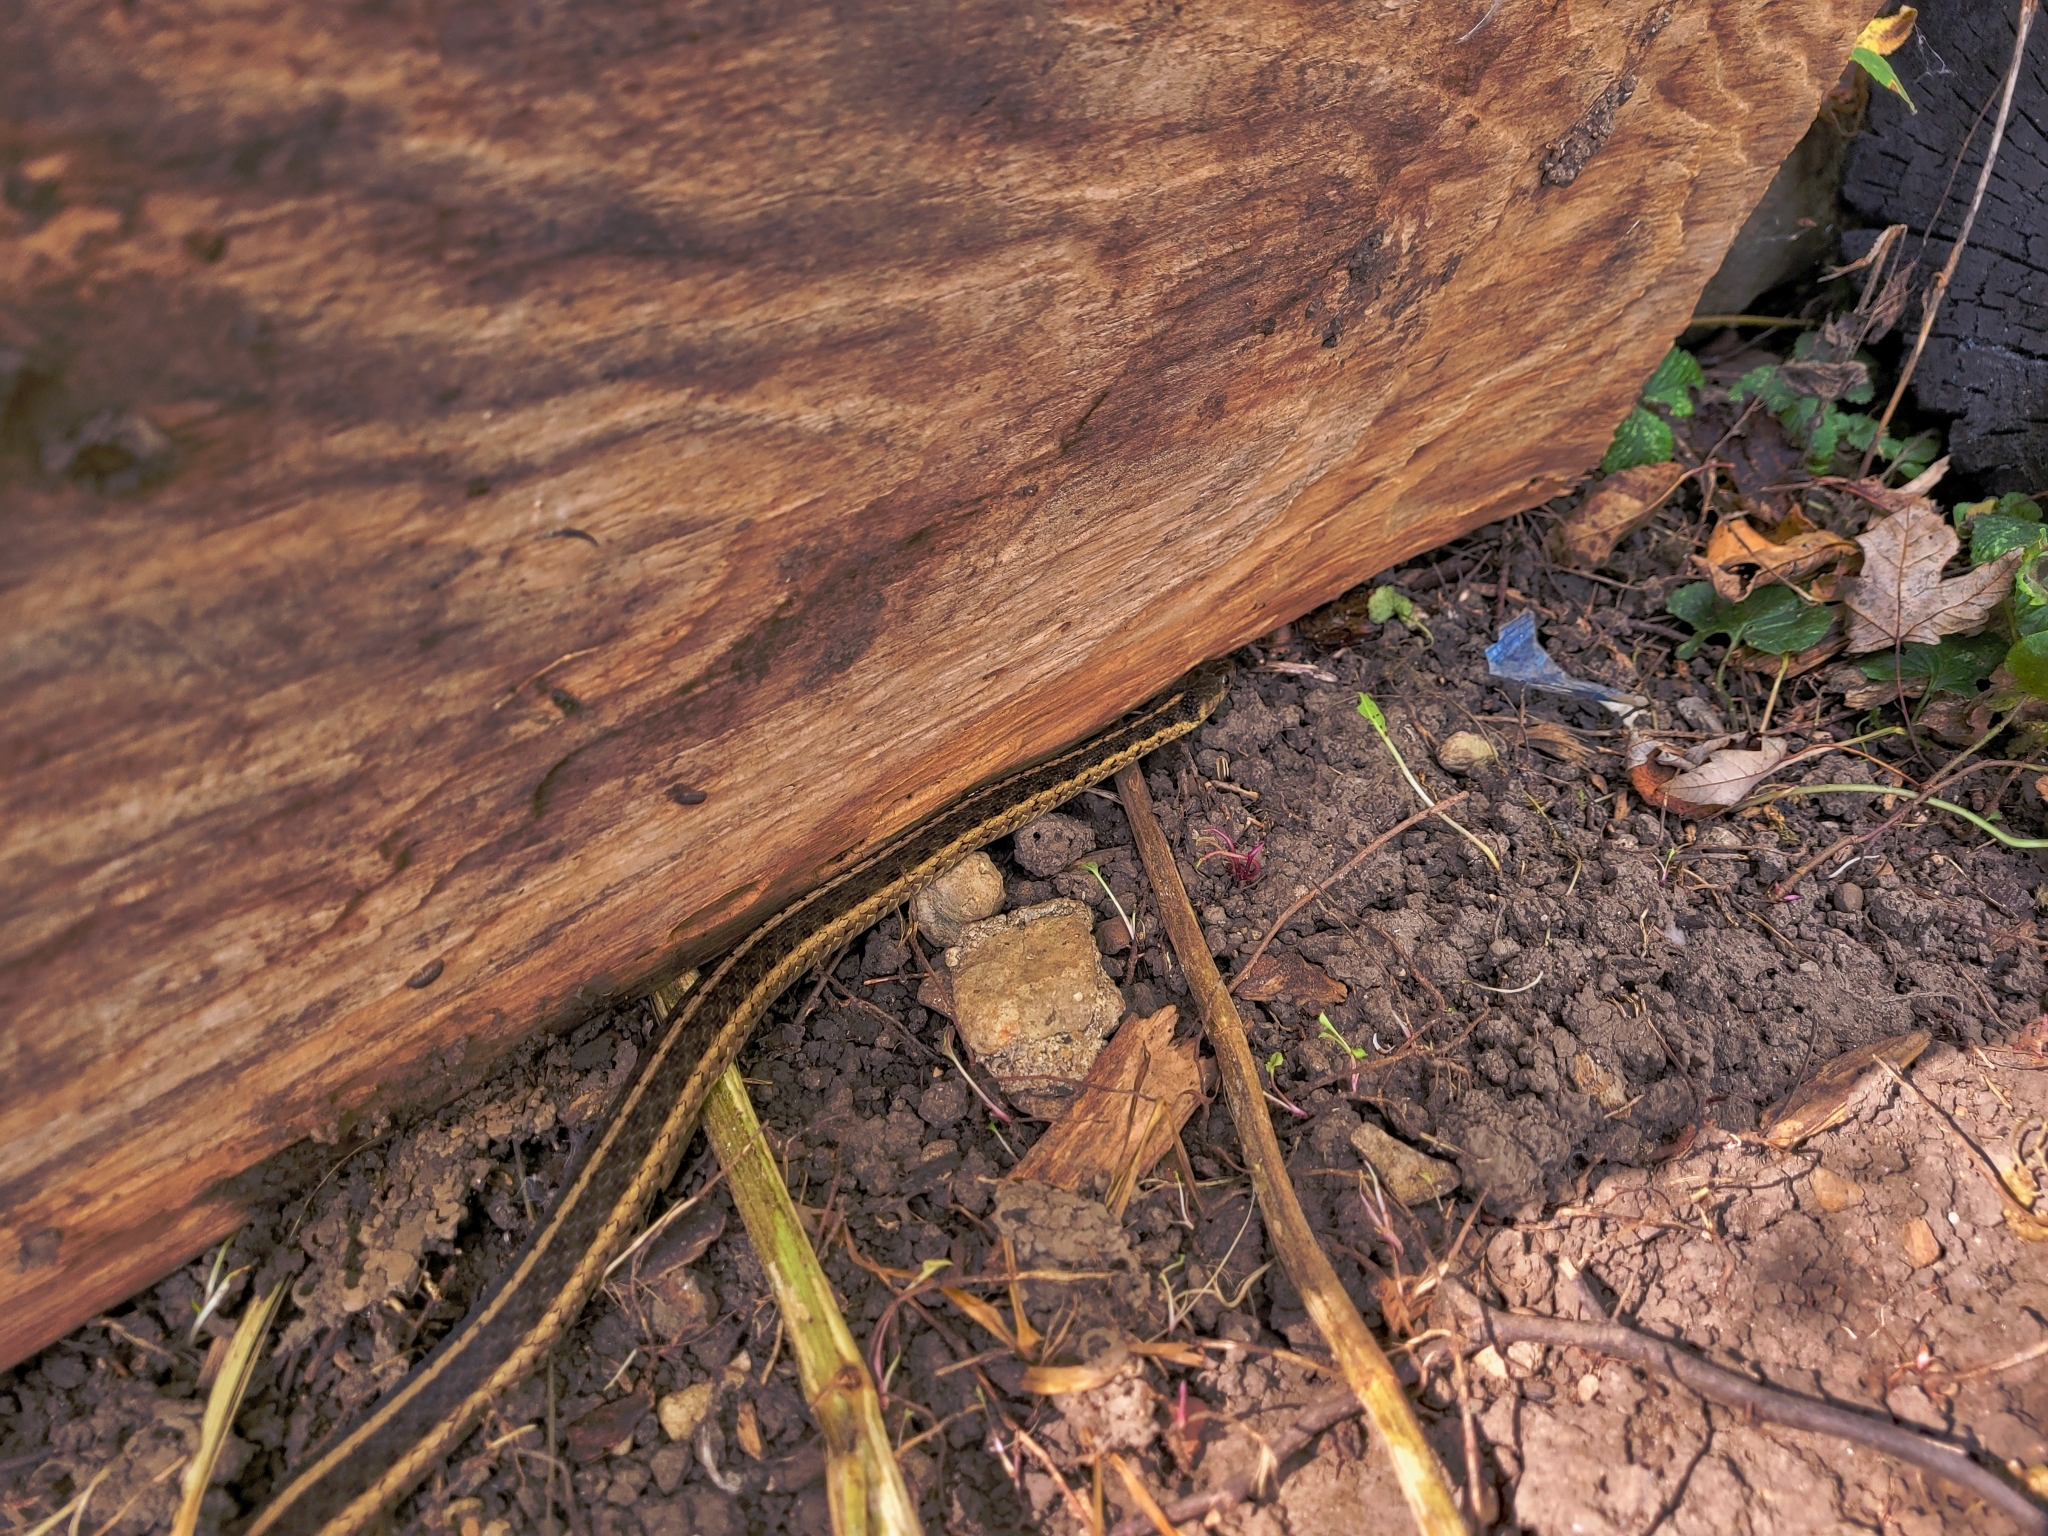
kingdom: Animalia
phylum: Chordata
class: Squamata
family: Colubridae
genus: Thamnophis
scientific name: Thamnophis sirtalis
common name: Common garter snake
